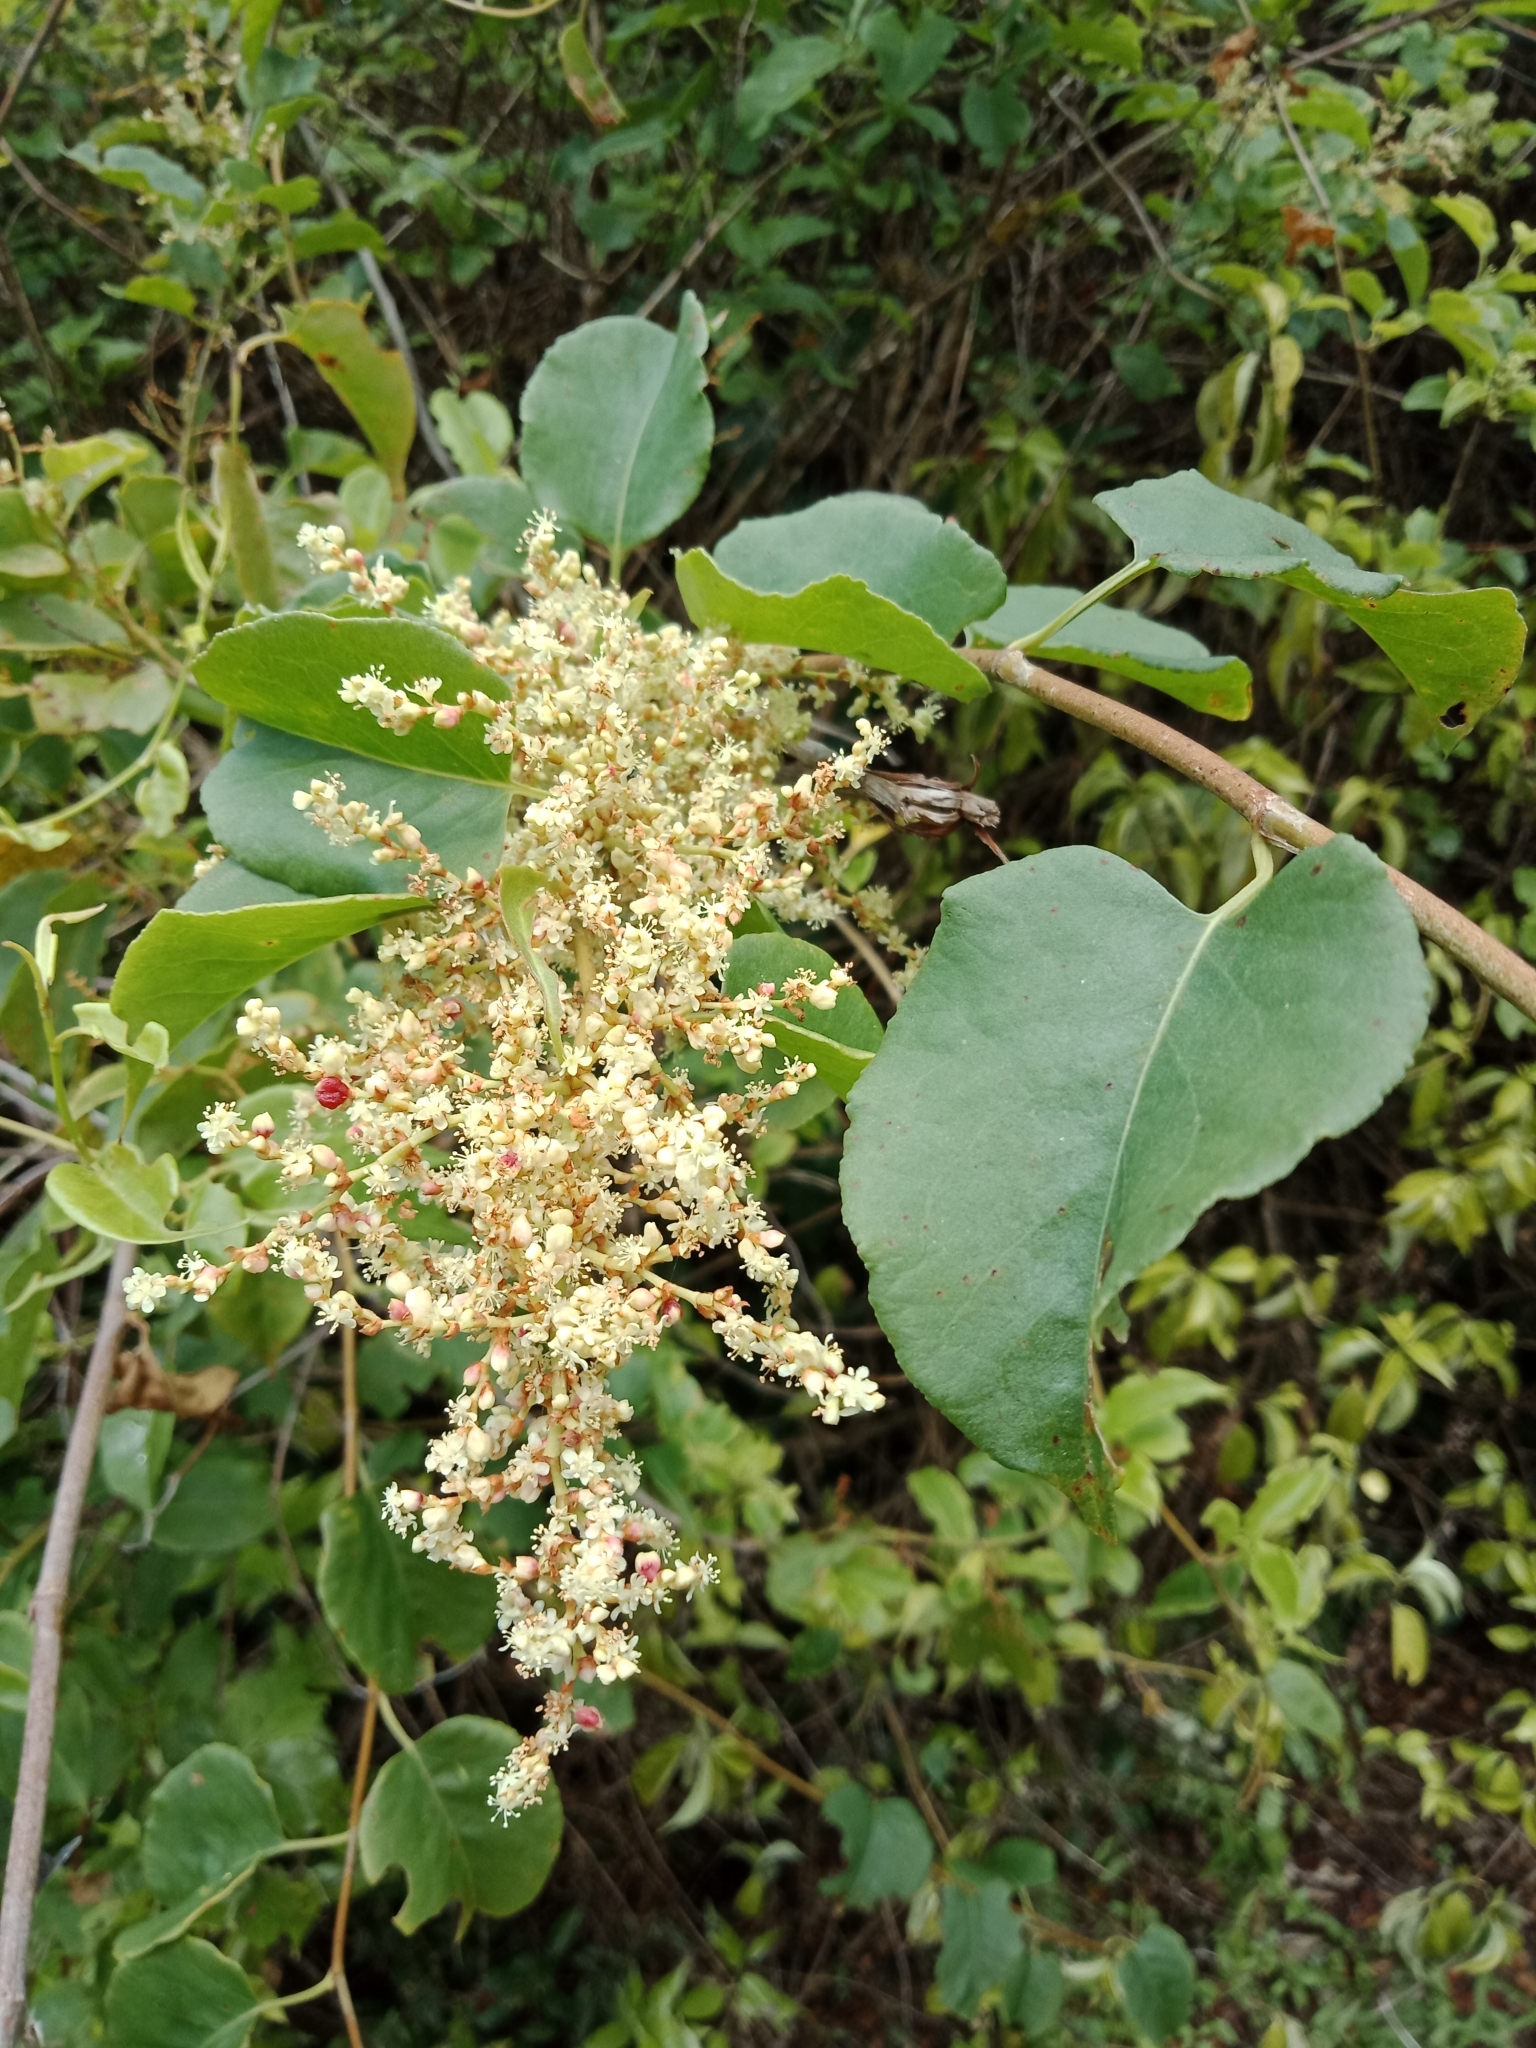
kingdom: Plantae
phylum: Tracheophyta
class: Magnoliopsida
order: Caryophyllales
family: Polygonaceae
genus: Muehlenbeckia
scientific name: Muehlenbeckia australis
